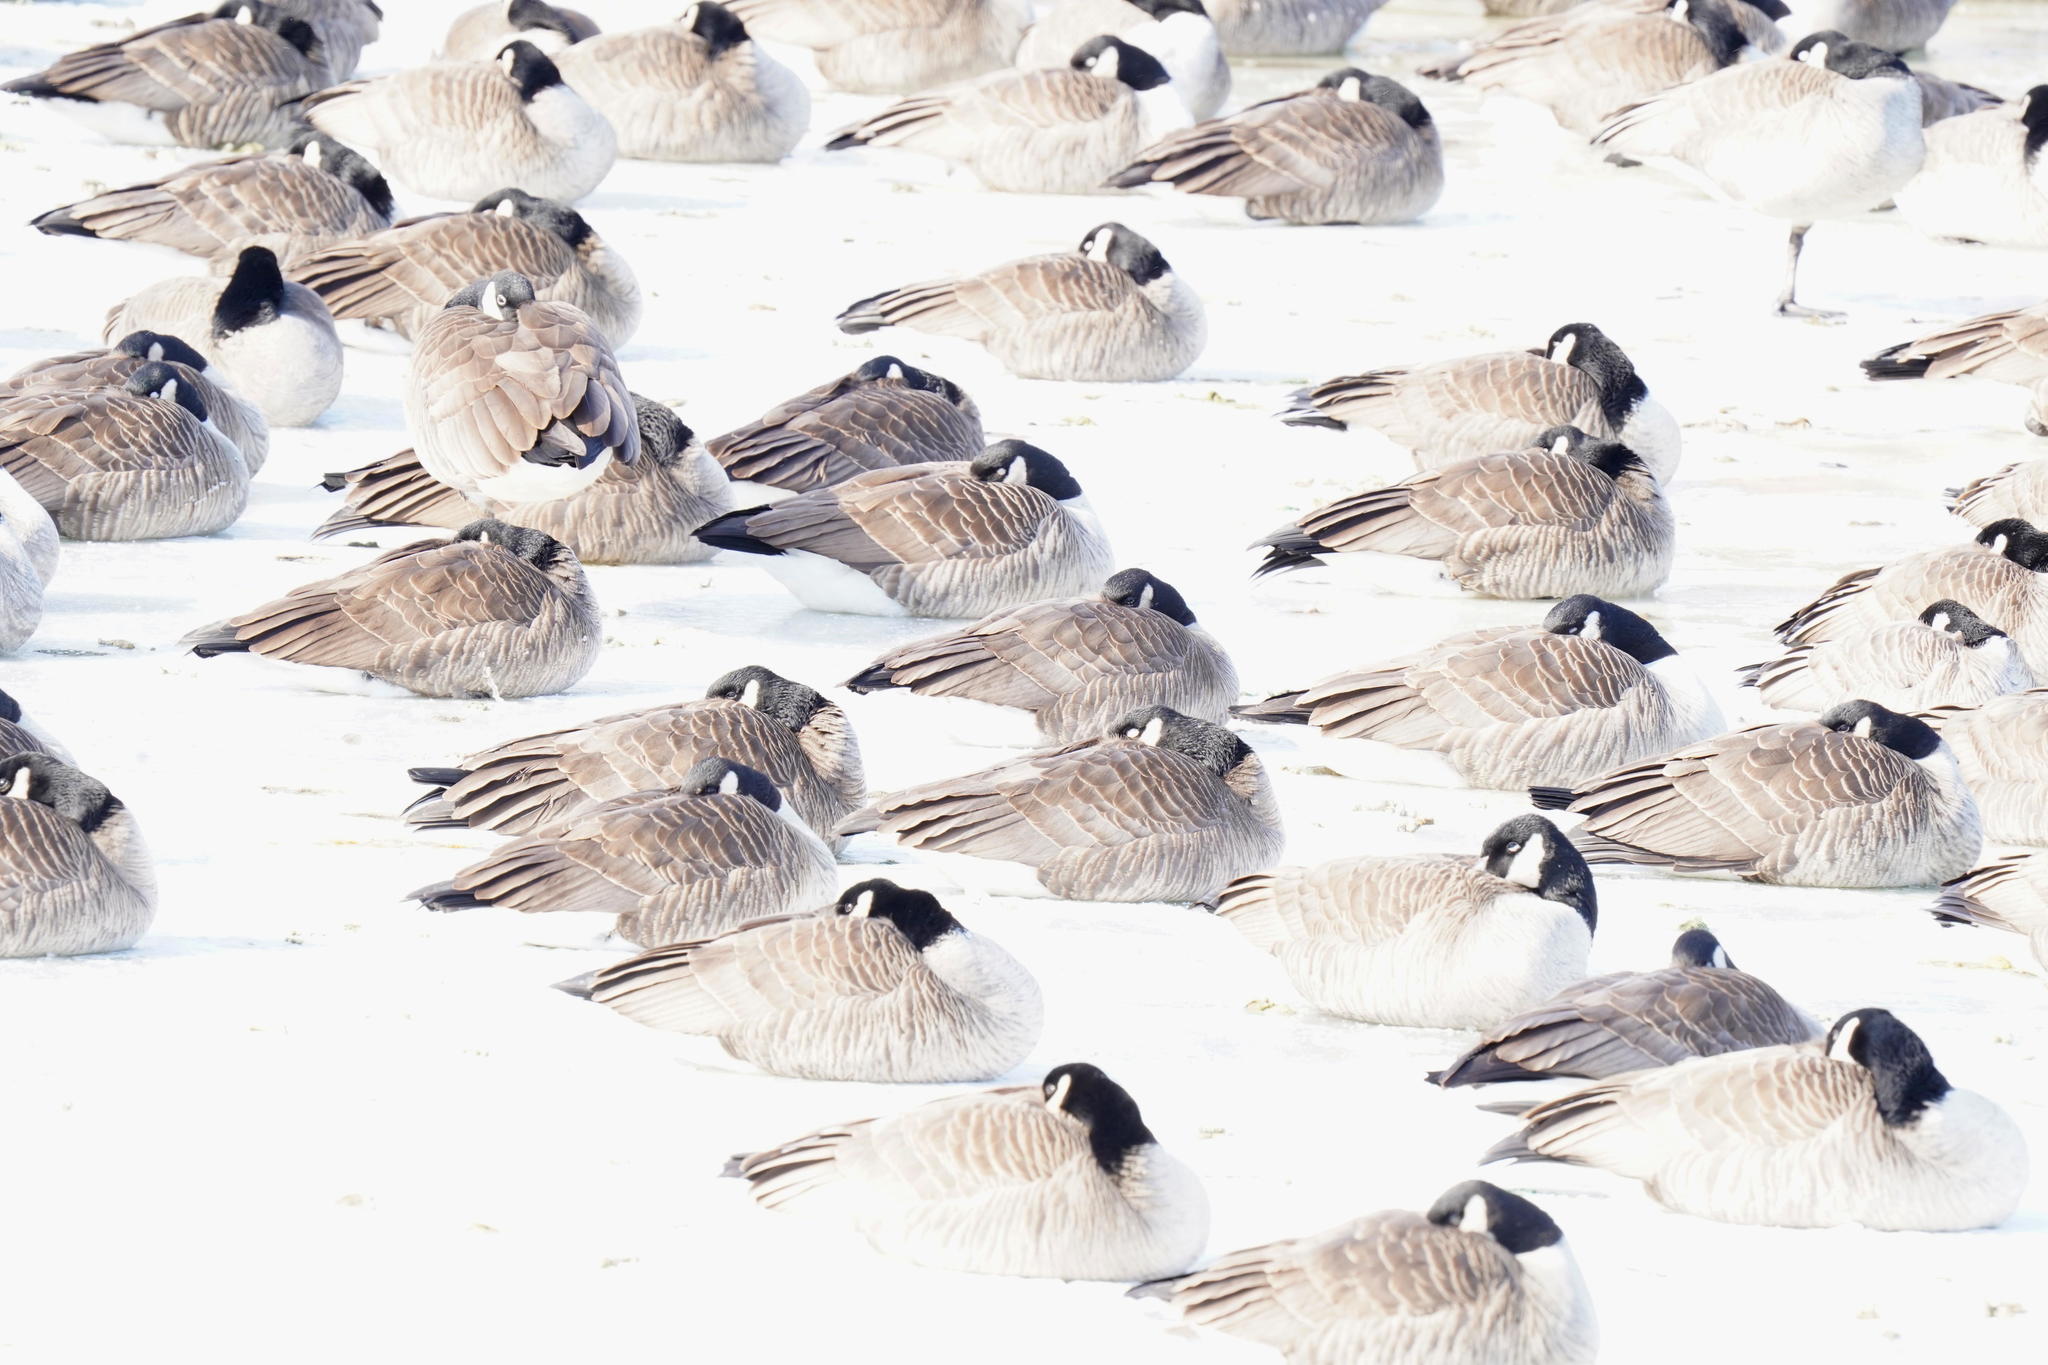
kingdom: Animalia
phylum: Chordata
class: Aves
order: Anseriformes
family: Anatidae
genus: Branta
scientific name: Branta canadensis
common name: Canada goose
